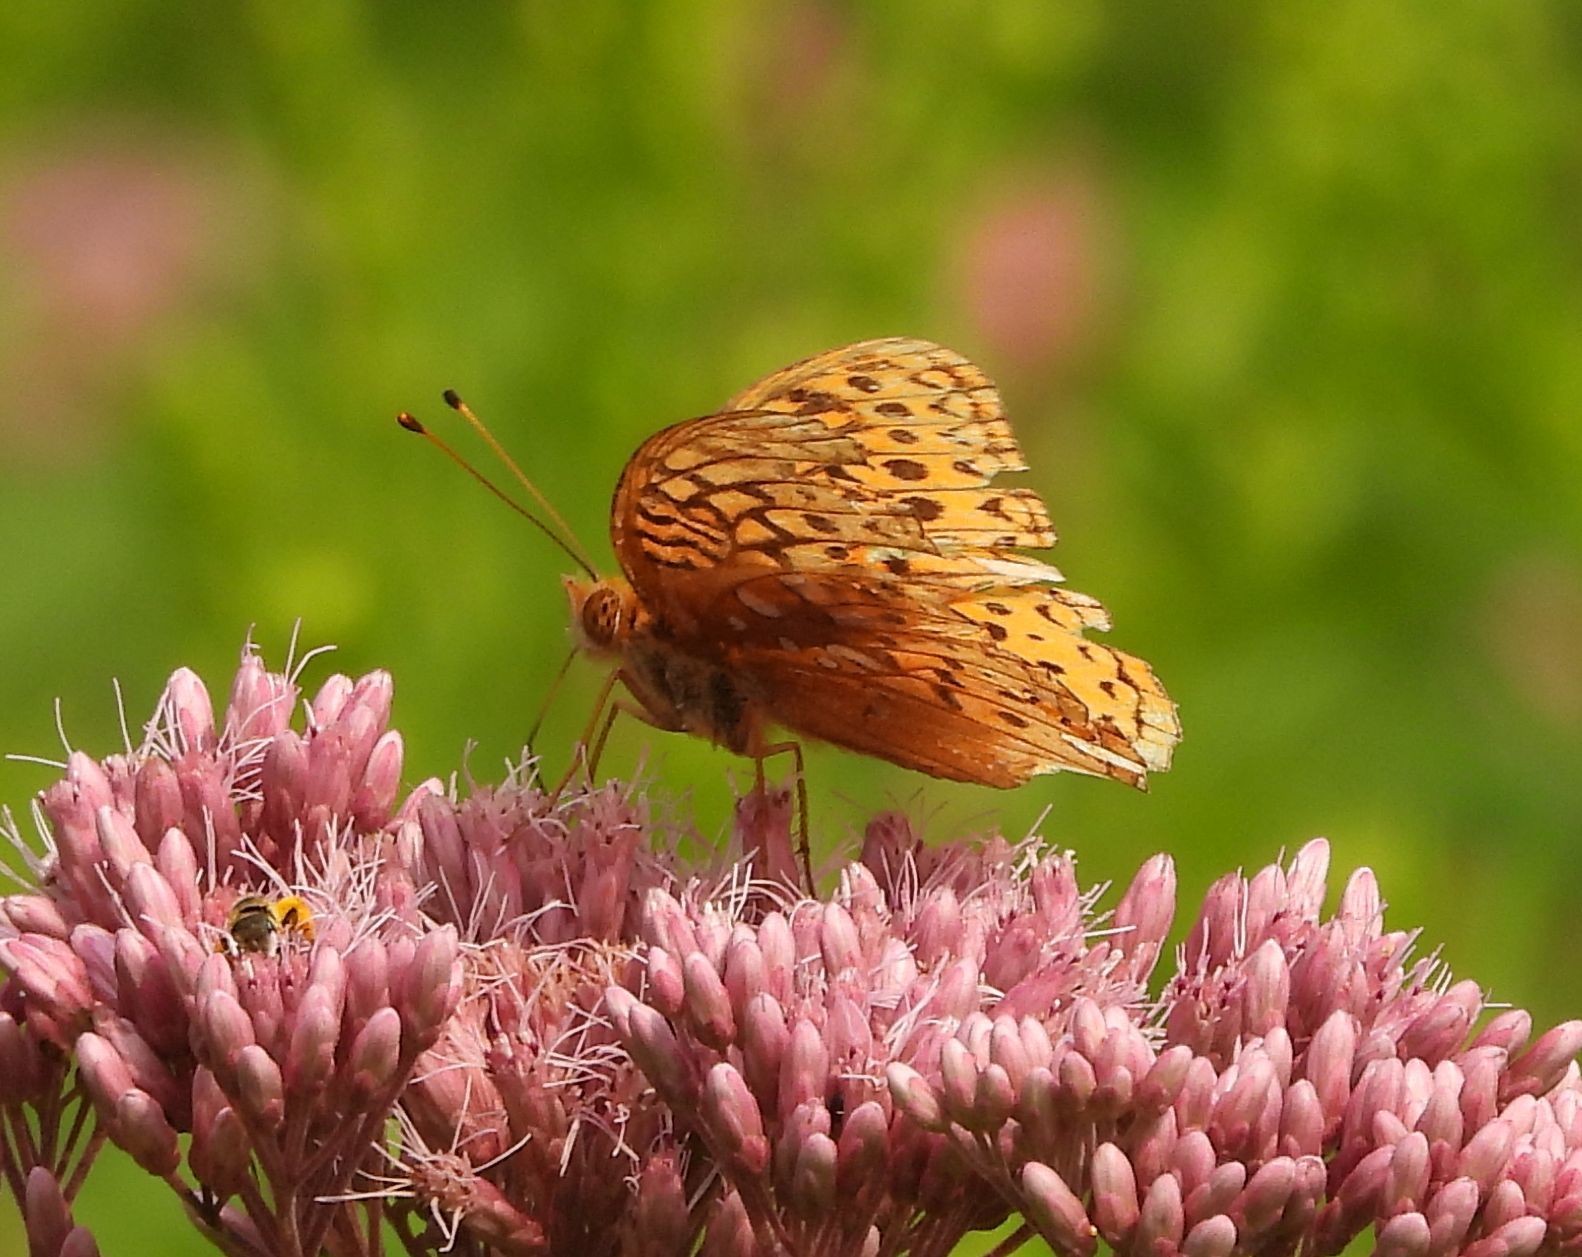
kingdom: Animalia
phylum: Arthropoda
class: Insecta
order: Lepidoptera
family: Nymphalidae
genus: Speyeria
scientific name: Speyeria cybele
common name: Great spangled fritillary
